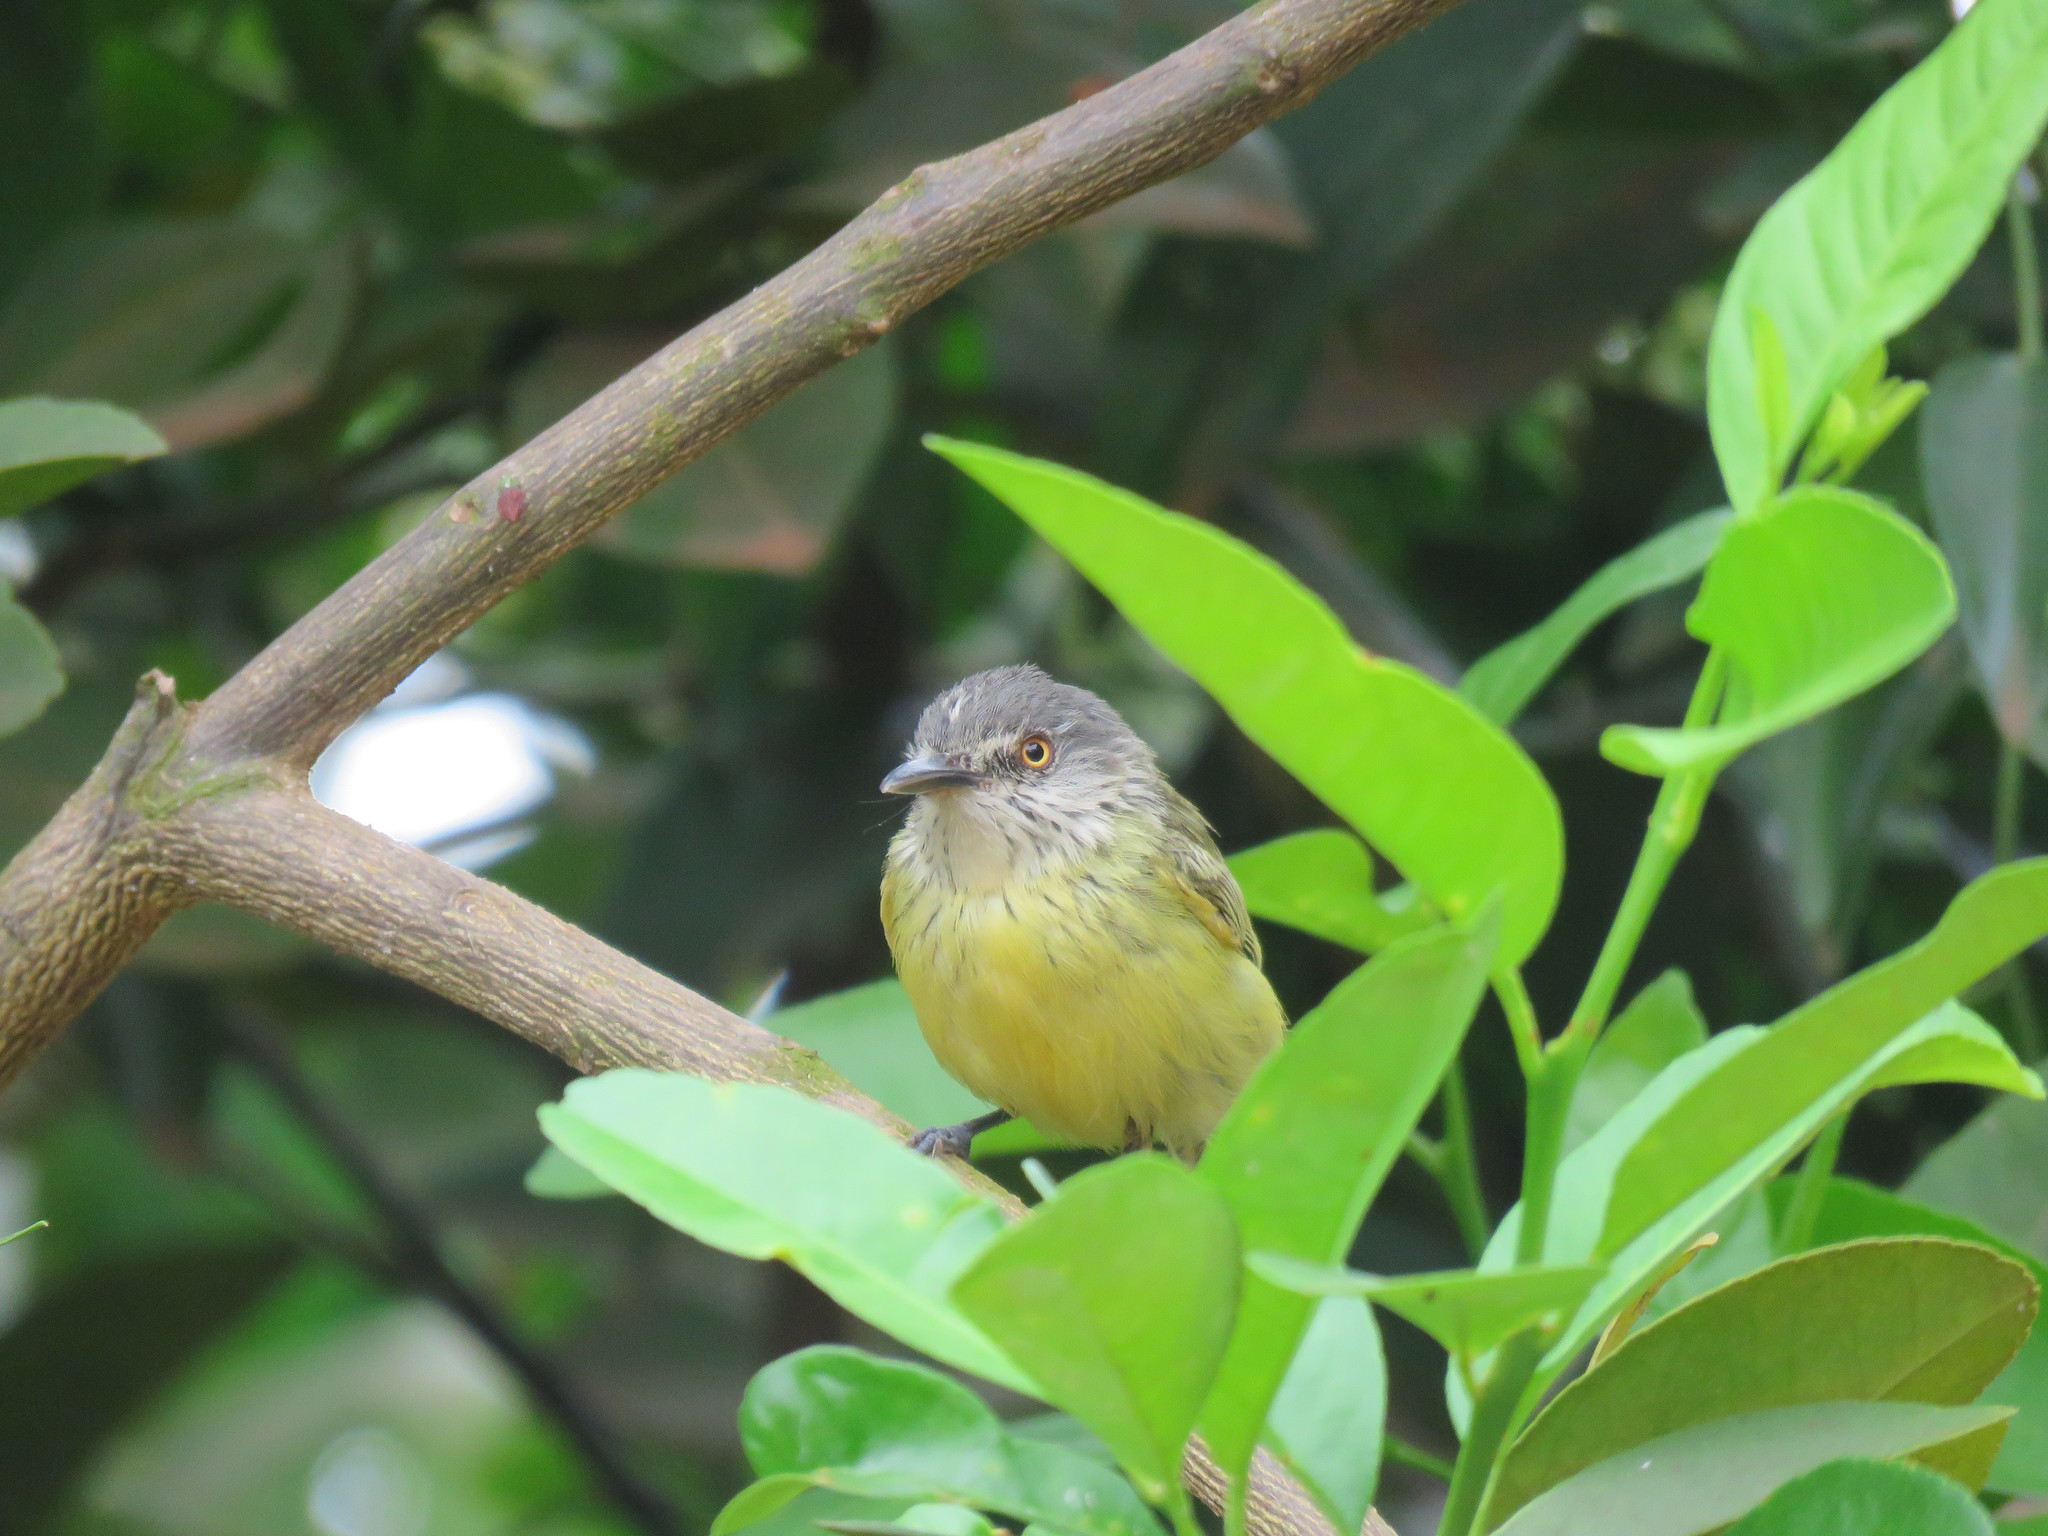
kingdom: Animalia
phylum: Chordata
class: Aves
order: Passeriformes
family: Tyrannidae
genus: Todirostrum
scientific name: Todirostrum maculatum
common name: Spotted tody-flycatcher
